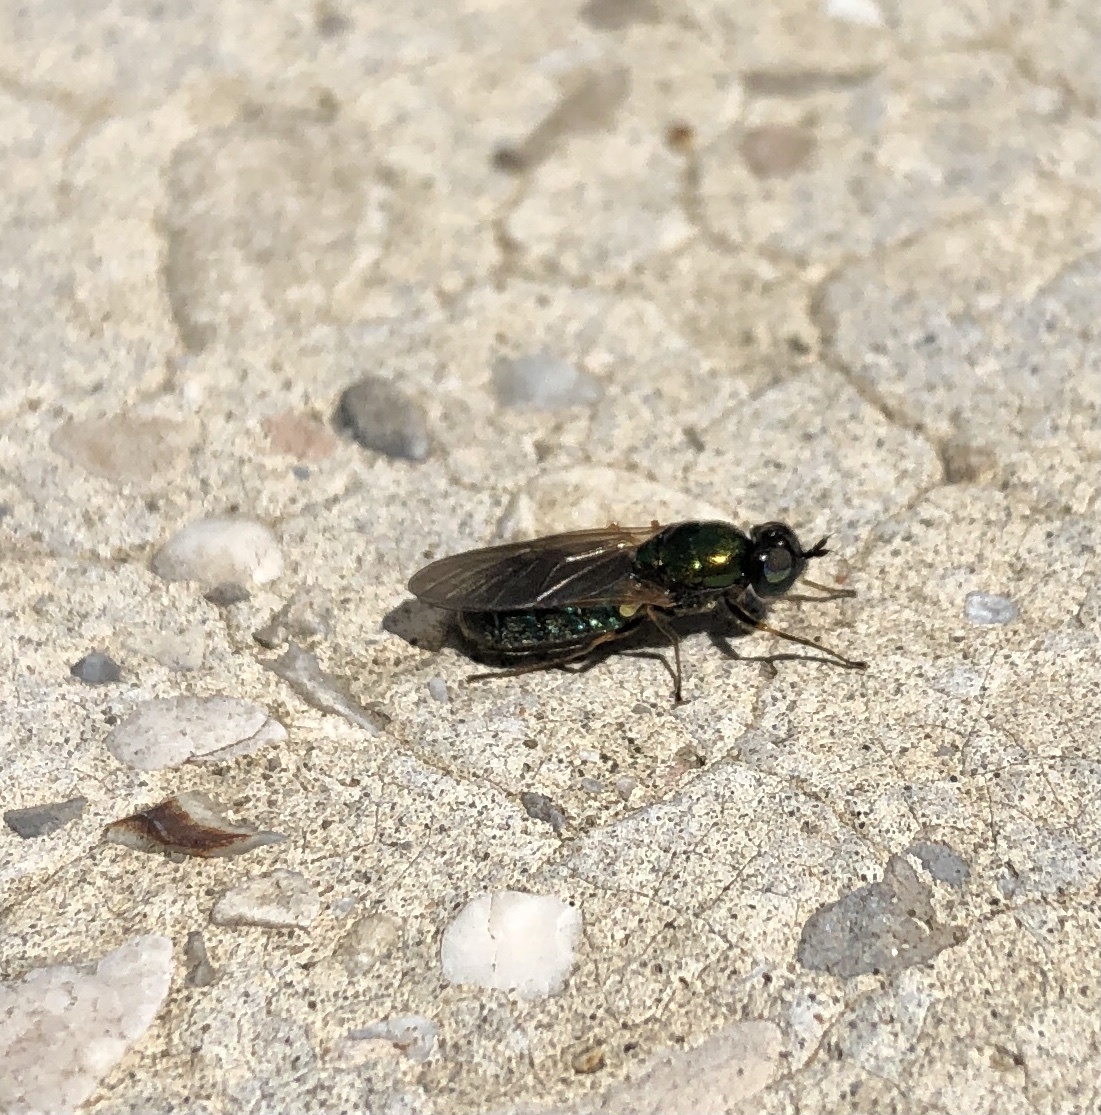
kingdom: Animalia
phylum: Arthropoda
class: Insecta
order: Diptera
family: Stratiomyidae
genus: Chloromyia
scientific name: Chloromyia formosa
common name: Soldier fly
